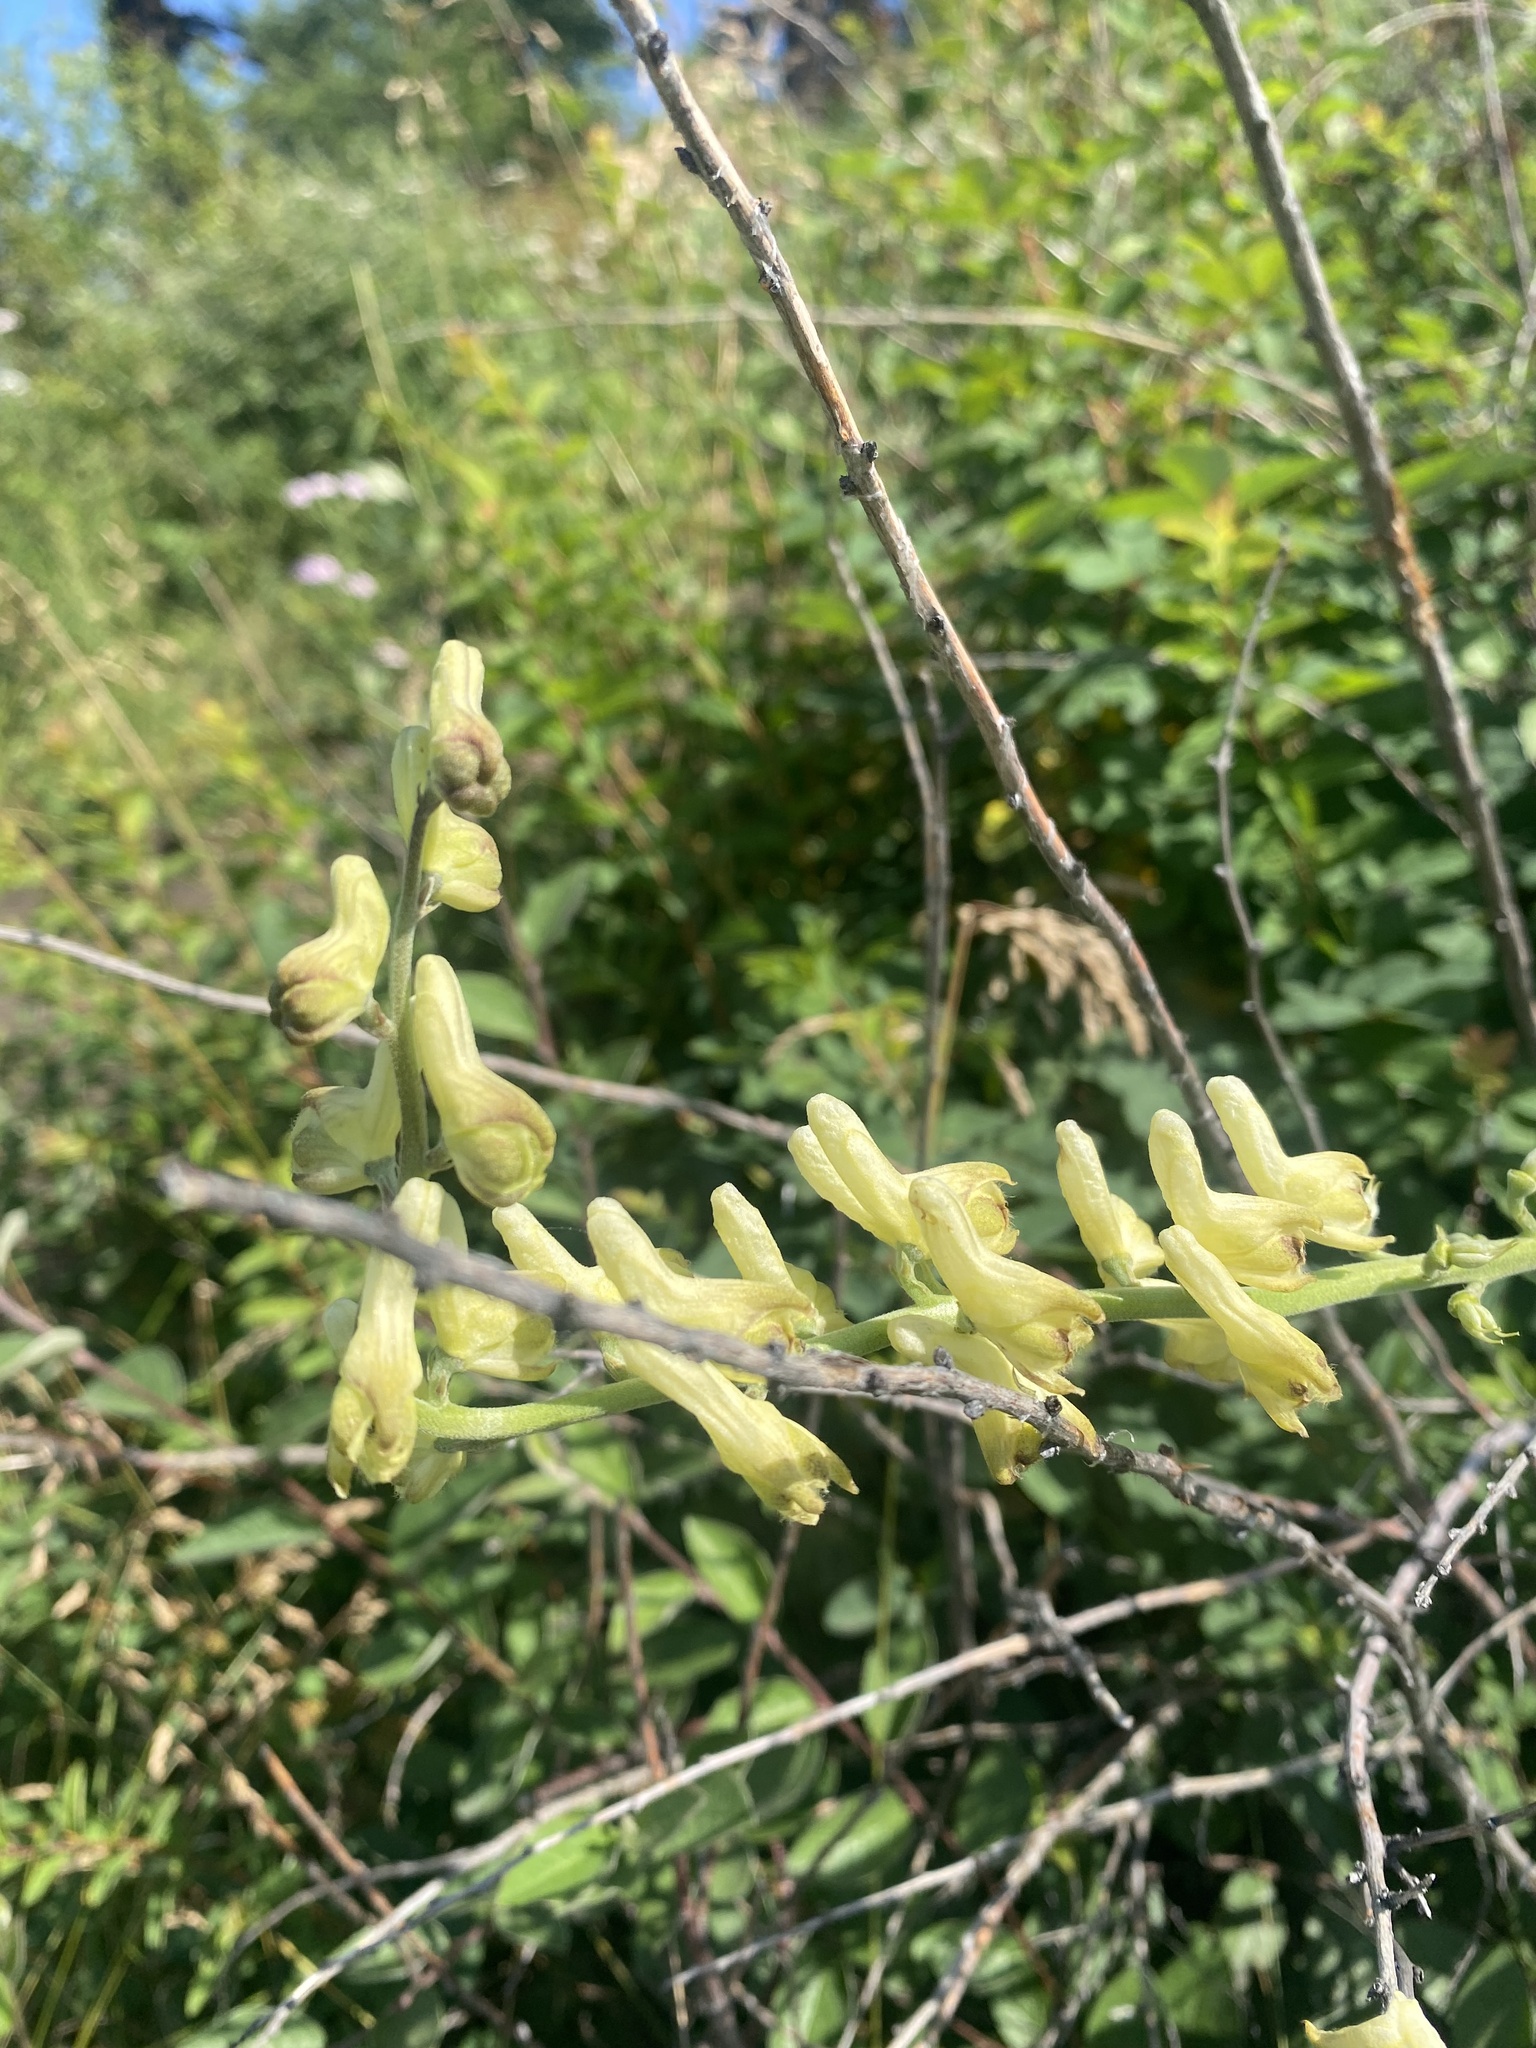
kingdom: Plantae
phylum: Tracheophyta
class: Magnoliopsida
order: Ranunculales
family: Ranunculaceae
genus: Aconitum
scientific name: Aconitum barbatum
